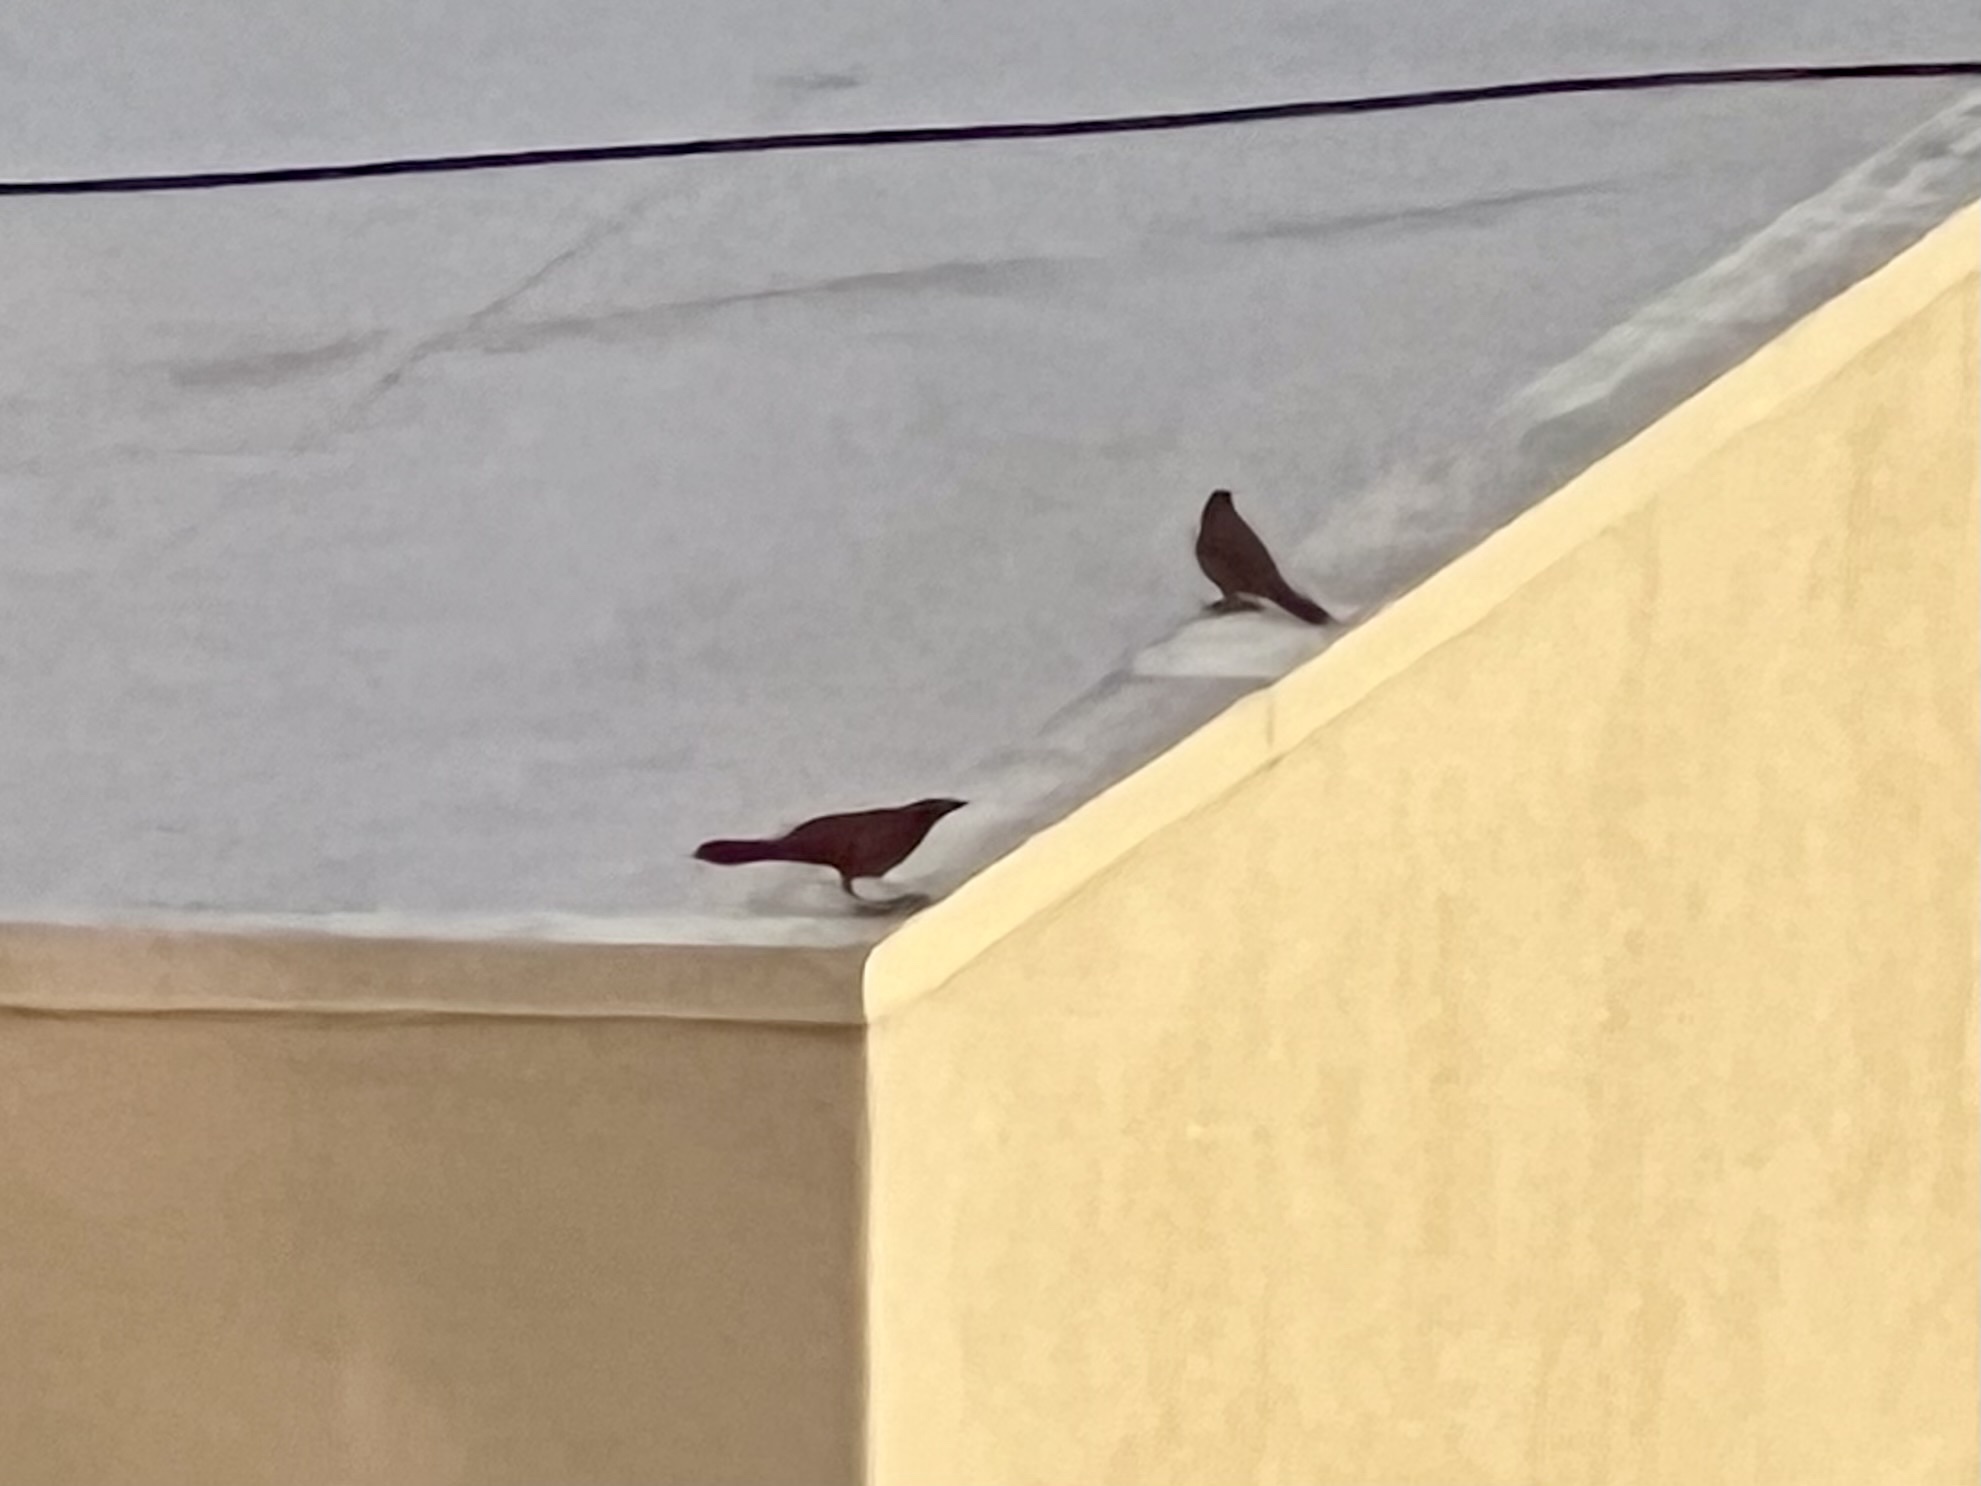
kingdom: Animalia
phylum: Chordata
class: Aves
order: Passeriformes
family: Icteridae
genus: Quiscalus
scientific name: Quiscalus mexicanus
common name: Great-tailed grackle
